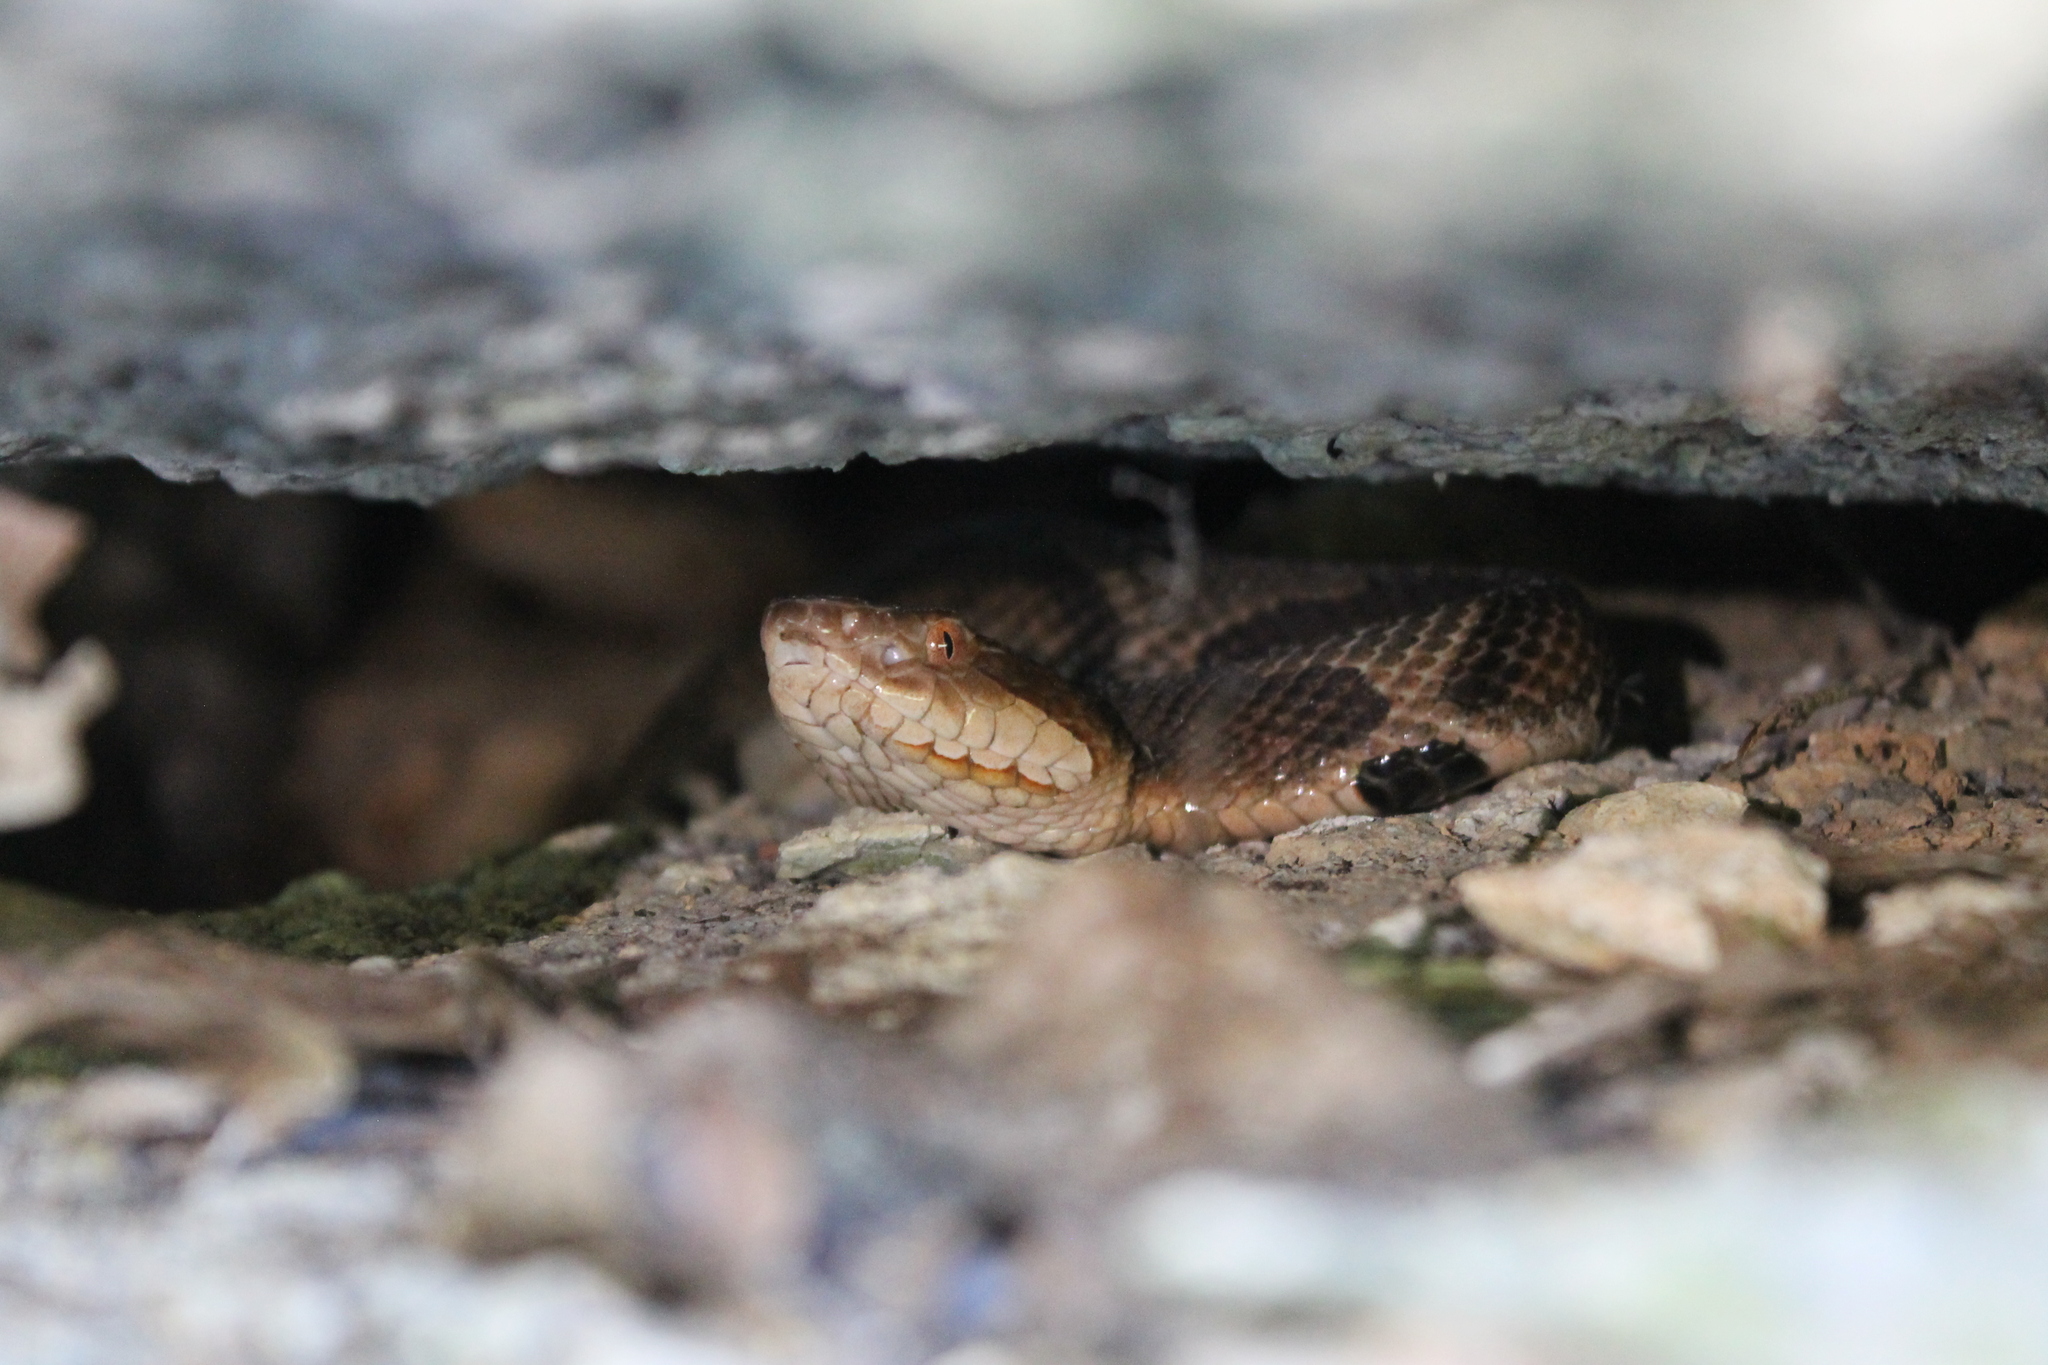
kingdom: Animalia
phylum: Chordata
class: Squamata
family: Viperidae
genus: Agkistrodon
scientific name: Agkistrodon contortrix
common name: Northern copperhead
